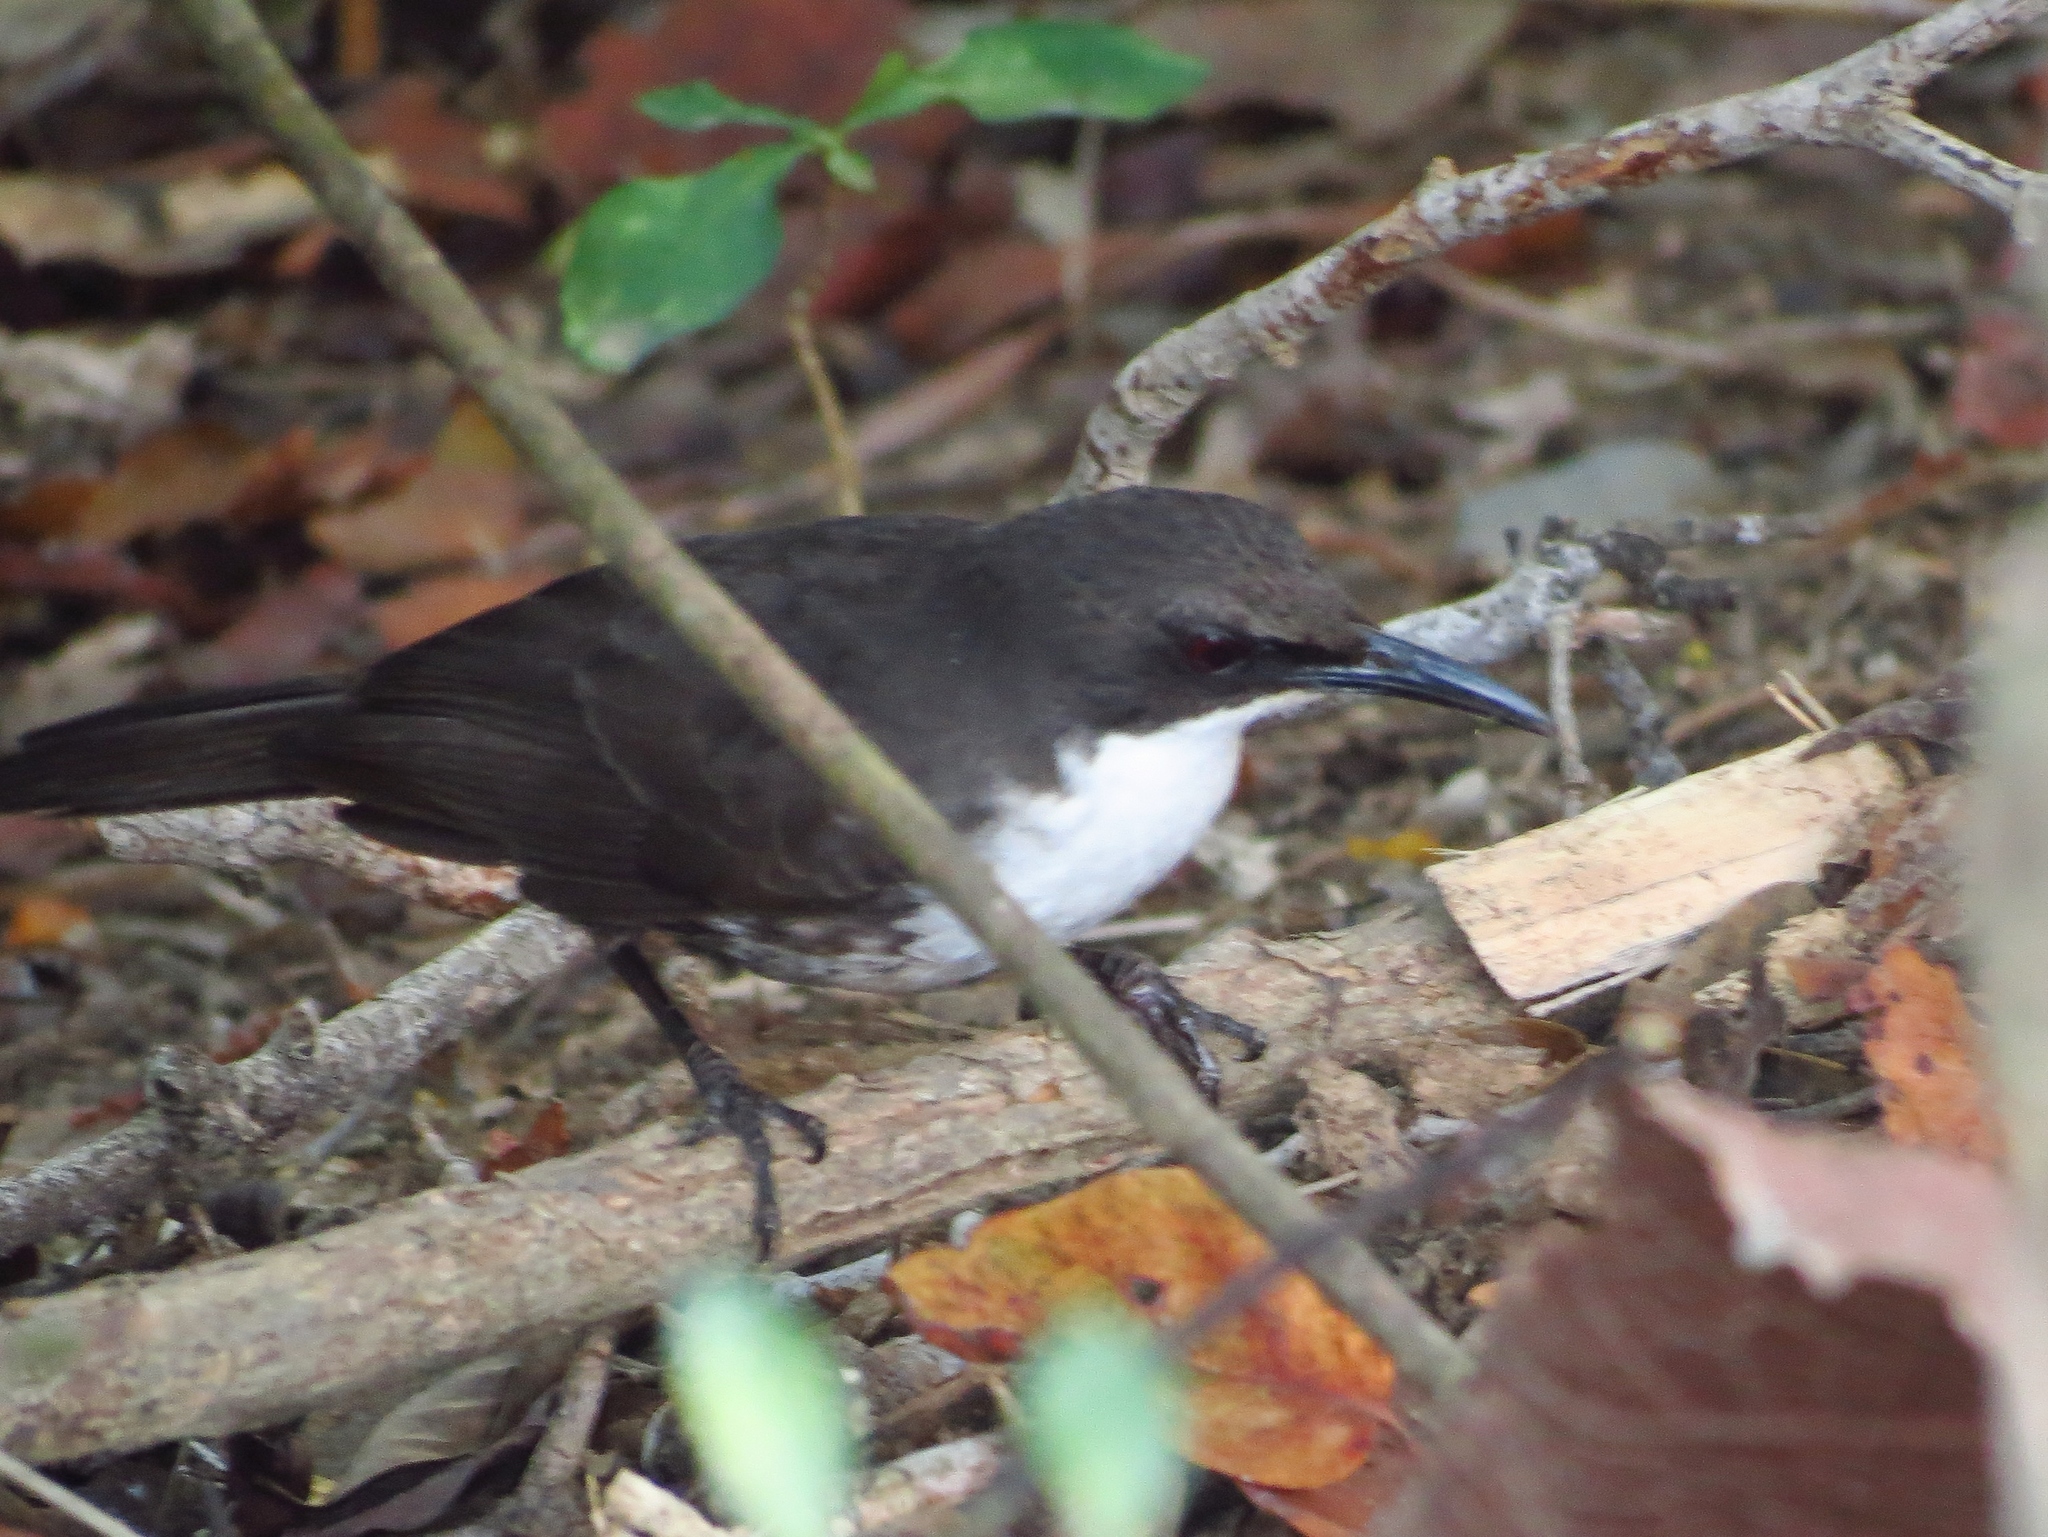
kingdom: Animalia
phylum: Chordata
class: Aves
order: Passeriformes
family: Mimidae
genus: Ramphocinclus
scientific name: Ramphocinclus brachyurus
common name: White-breasted thrasher
